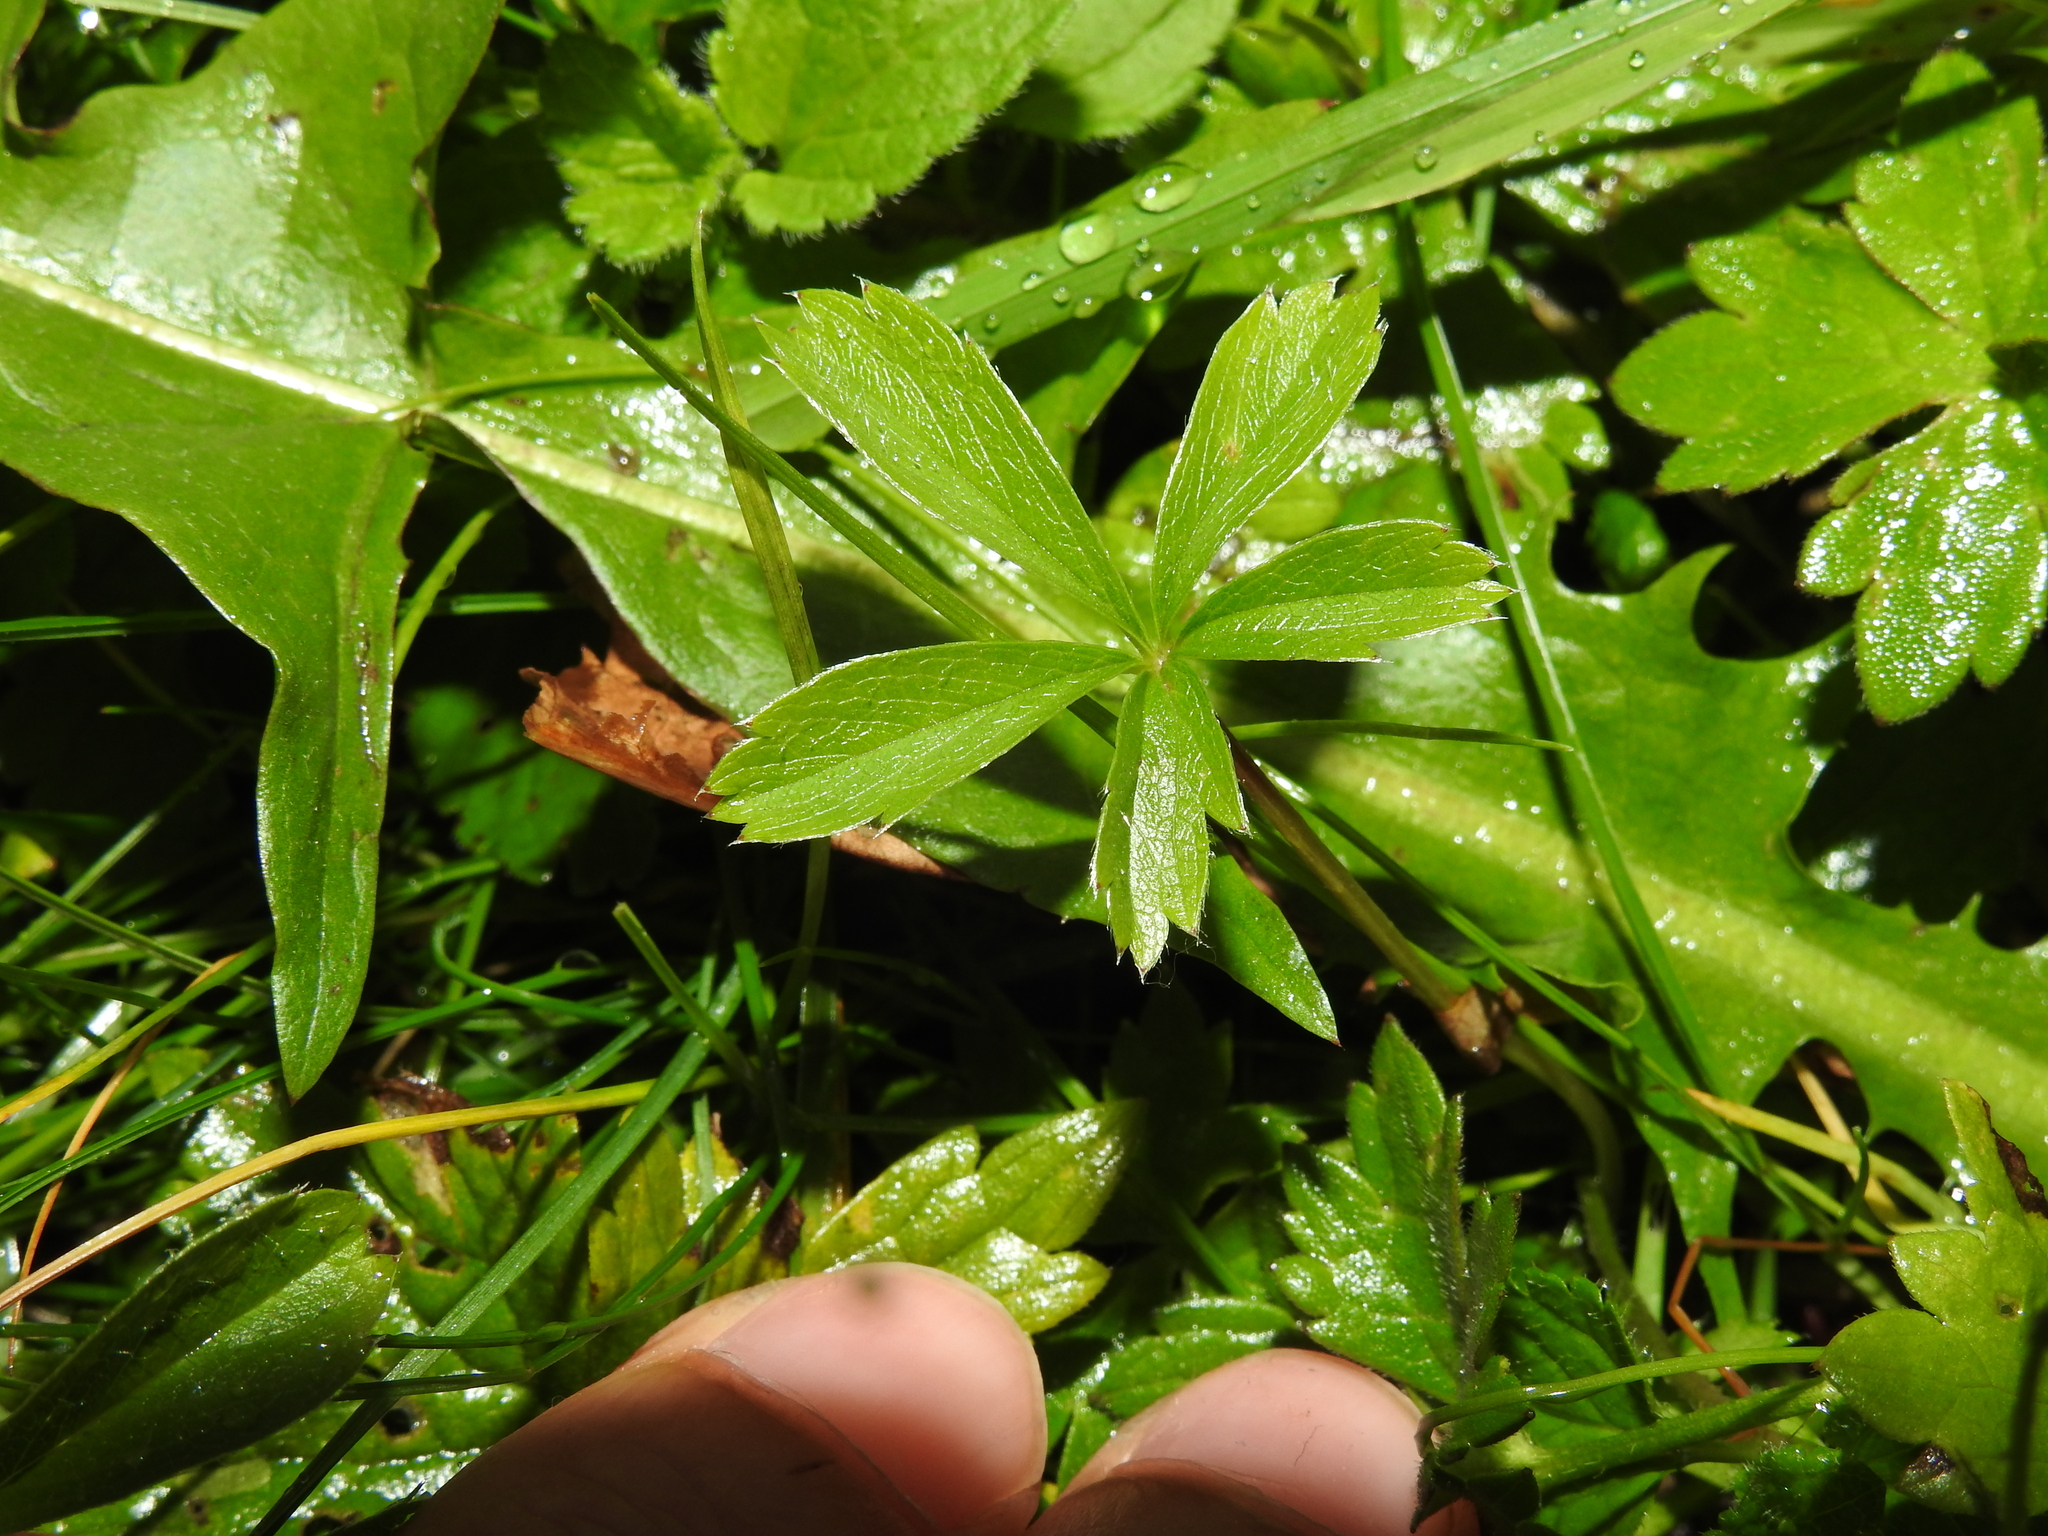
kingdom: Plantae
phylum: Tracheophyta
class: Magnoliopsida
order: Rosales
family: Rosaceae
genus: Potentilla
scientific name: Potentilla aurea
